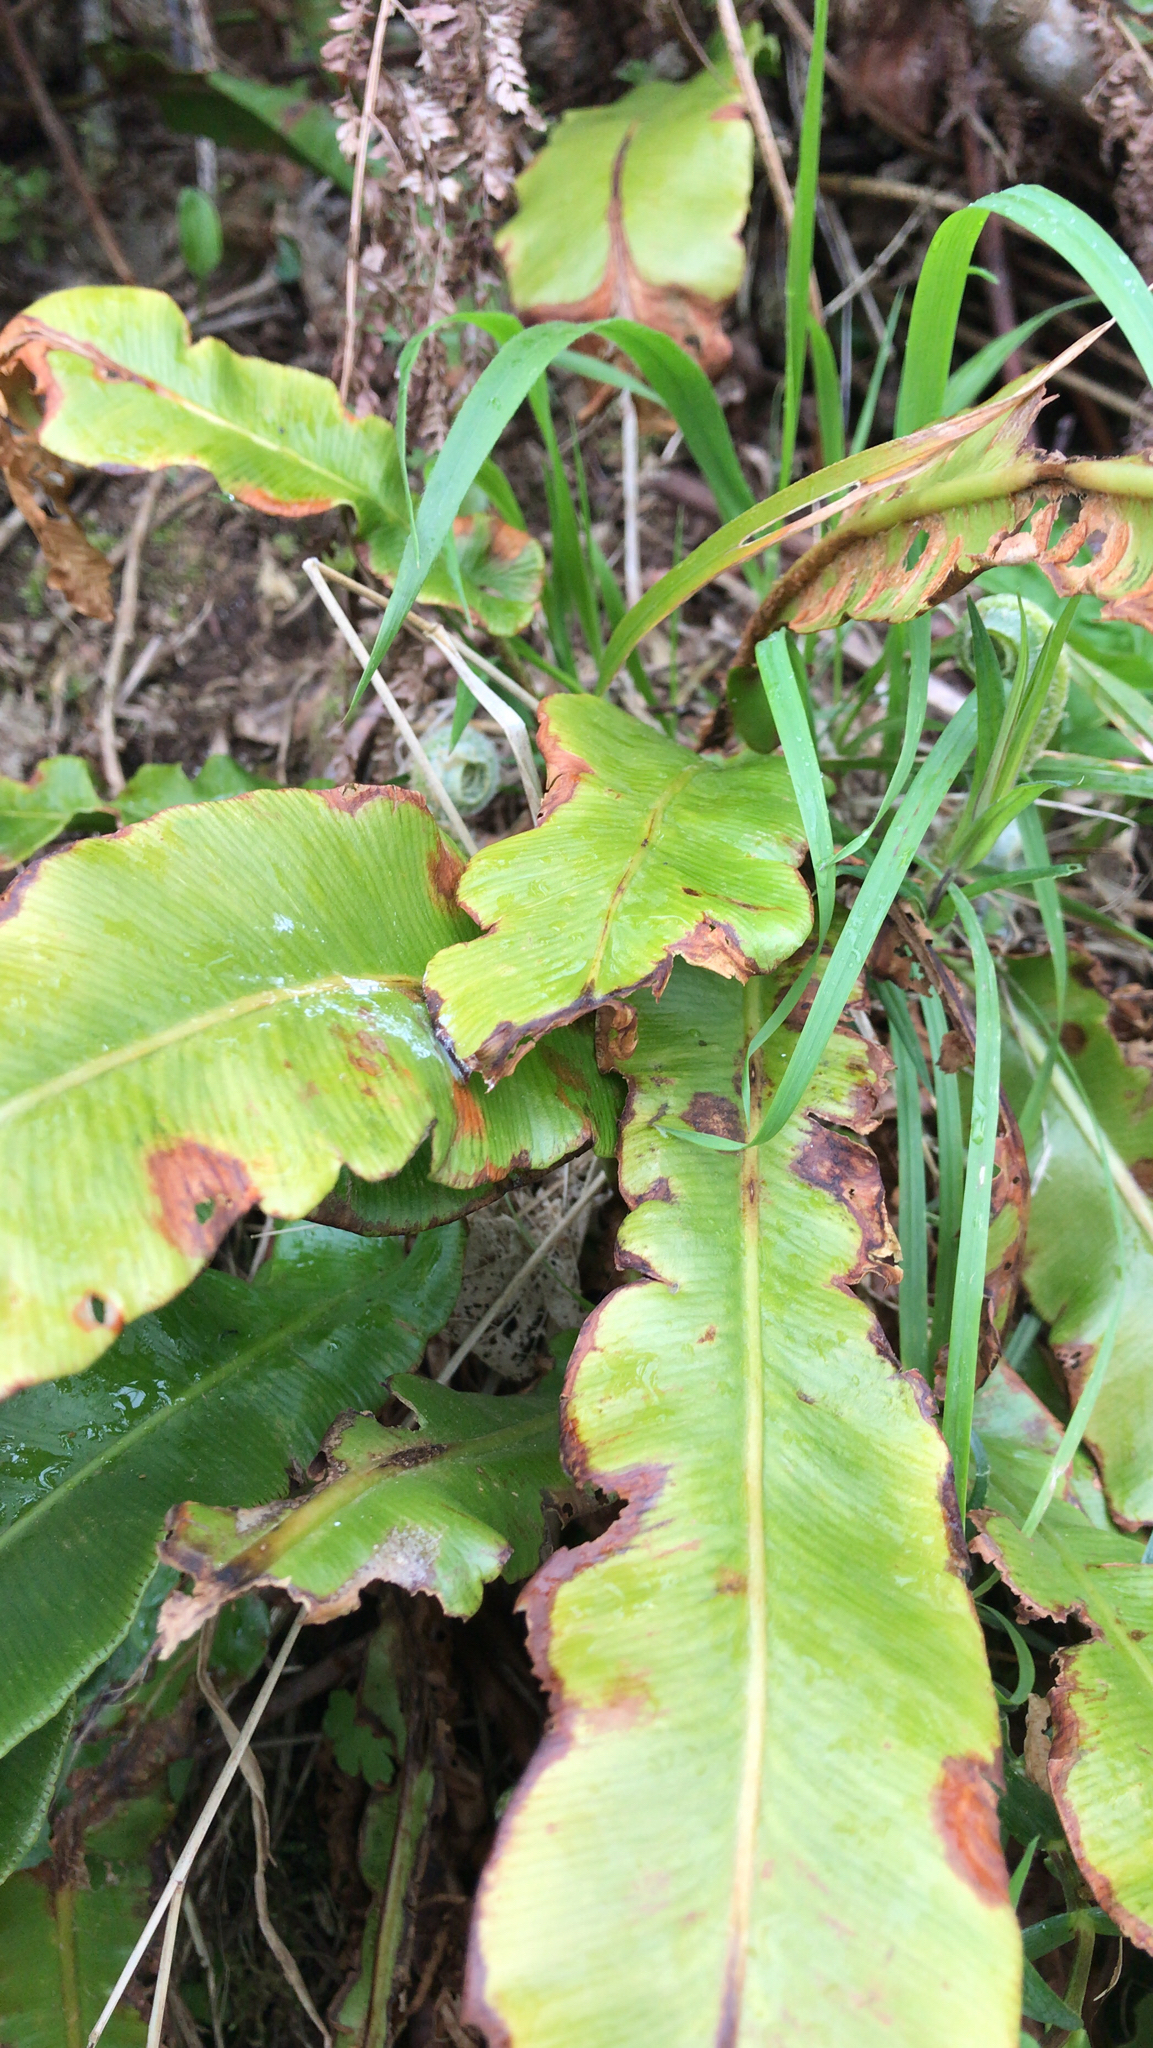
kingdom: Plantae
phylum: Tracheophyta
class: Polypodiopsida
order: Polypodiales
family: Aspleniaceae
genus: Asplenium
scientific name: Asplenium scolopendrium
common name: Hart's-tongue fern
